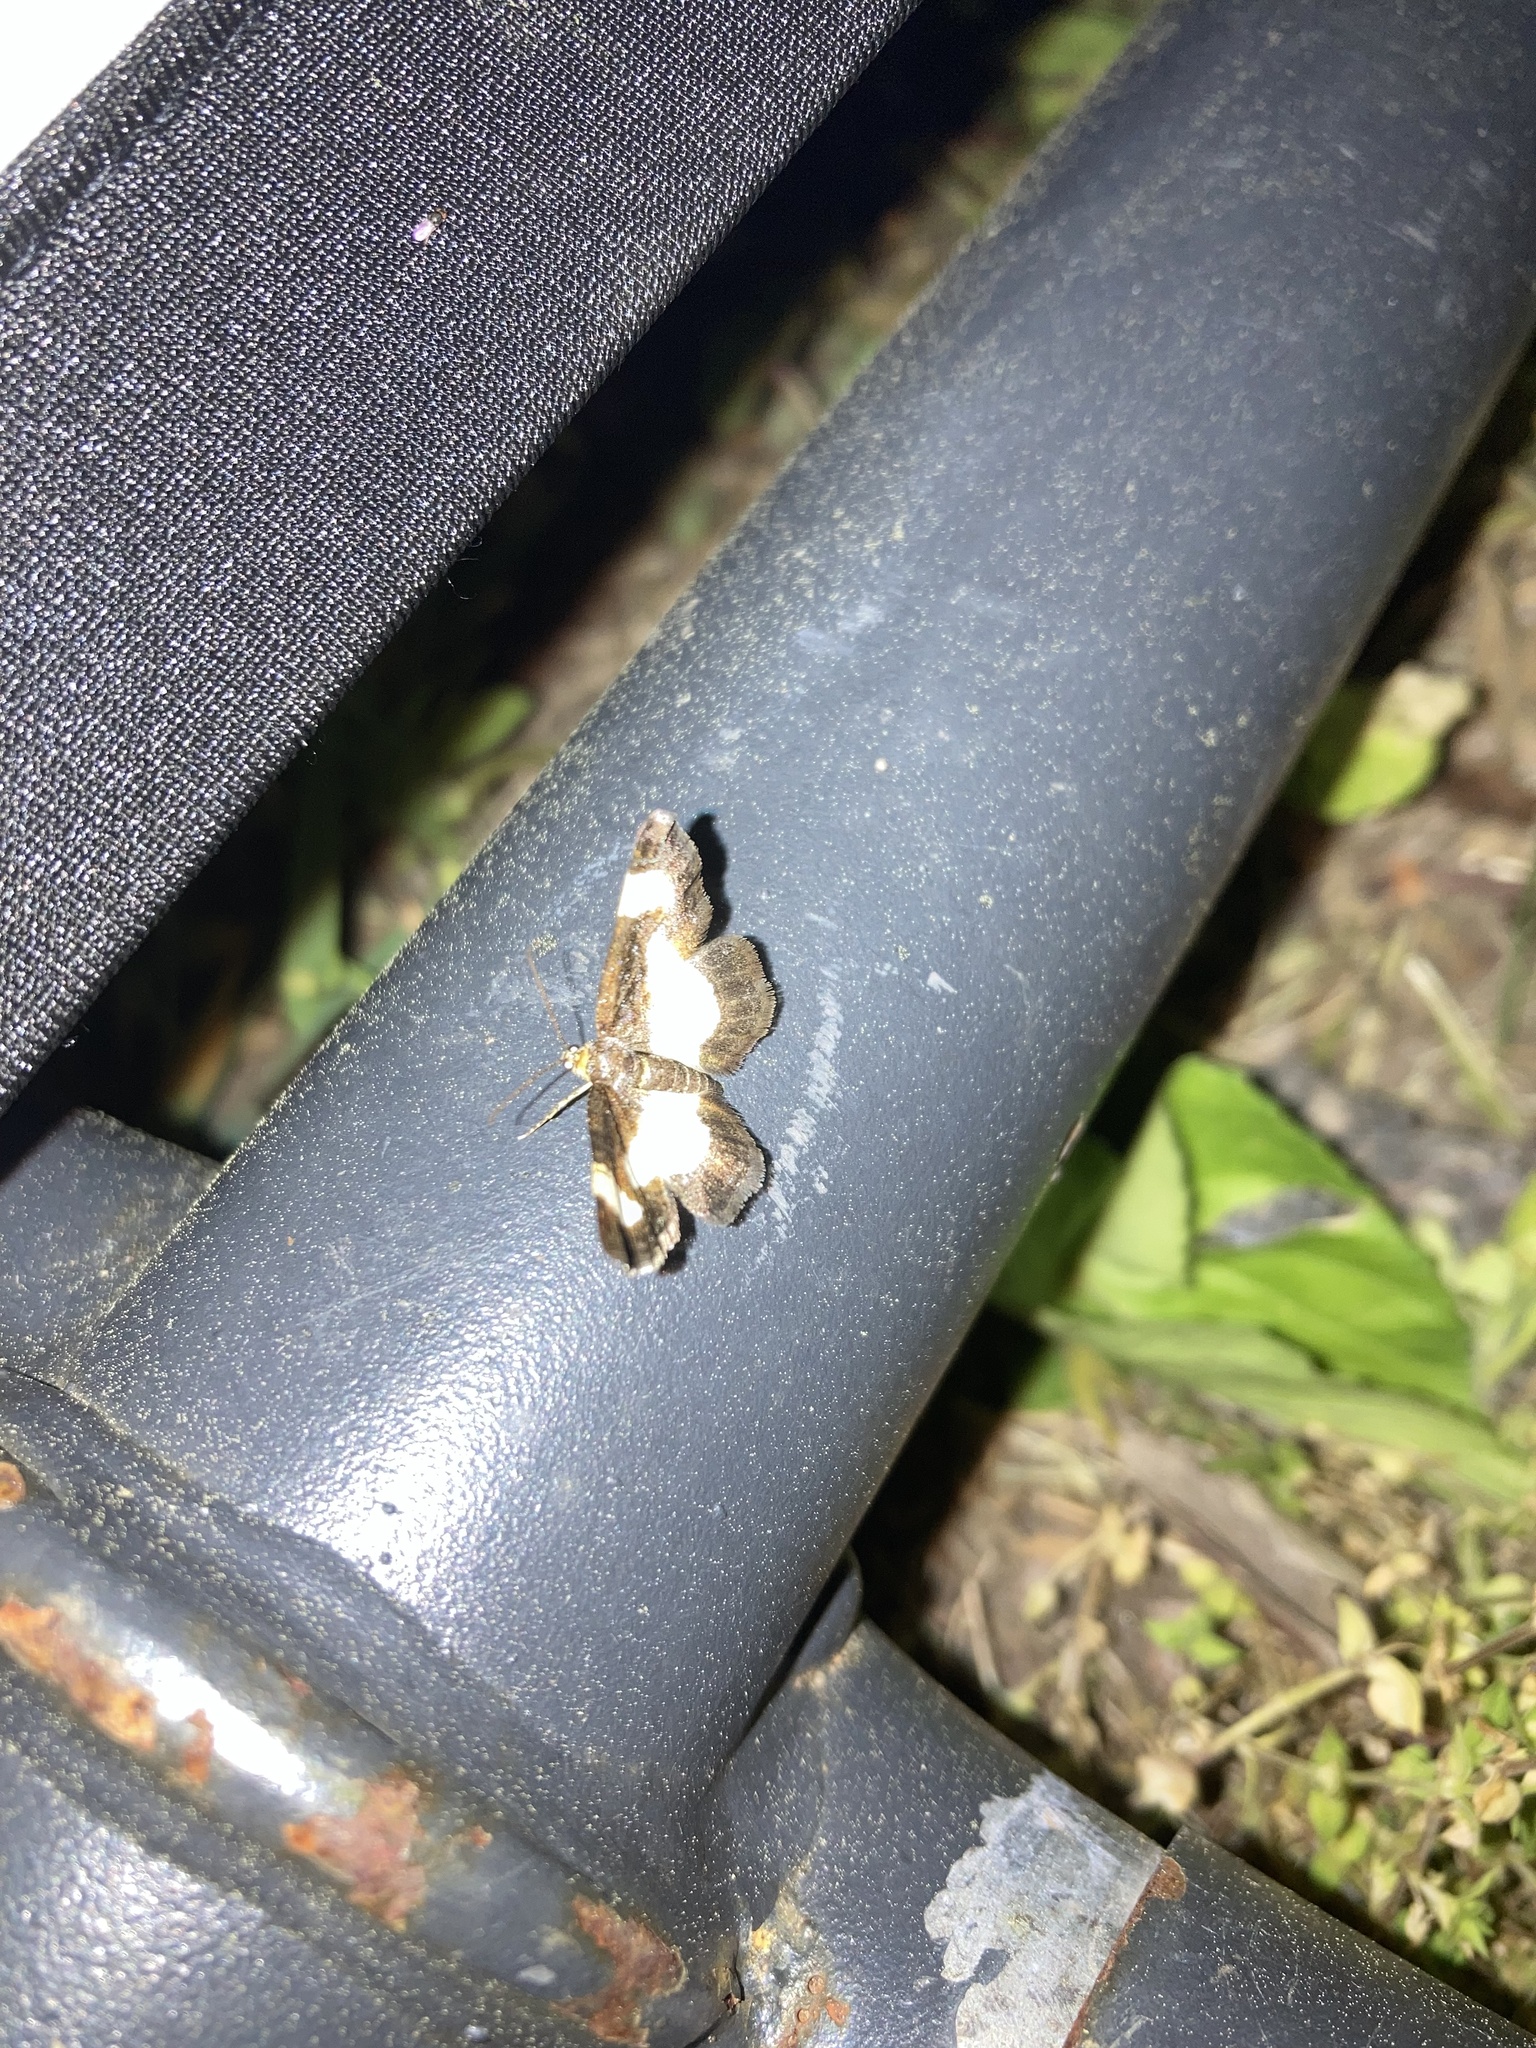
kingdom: Animalia
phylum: Arthropoda
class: Insecta
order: Lepidoptera
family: Geometridae
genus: Heliomata
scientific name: Heliomata cycladata
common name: Common spring moth
